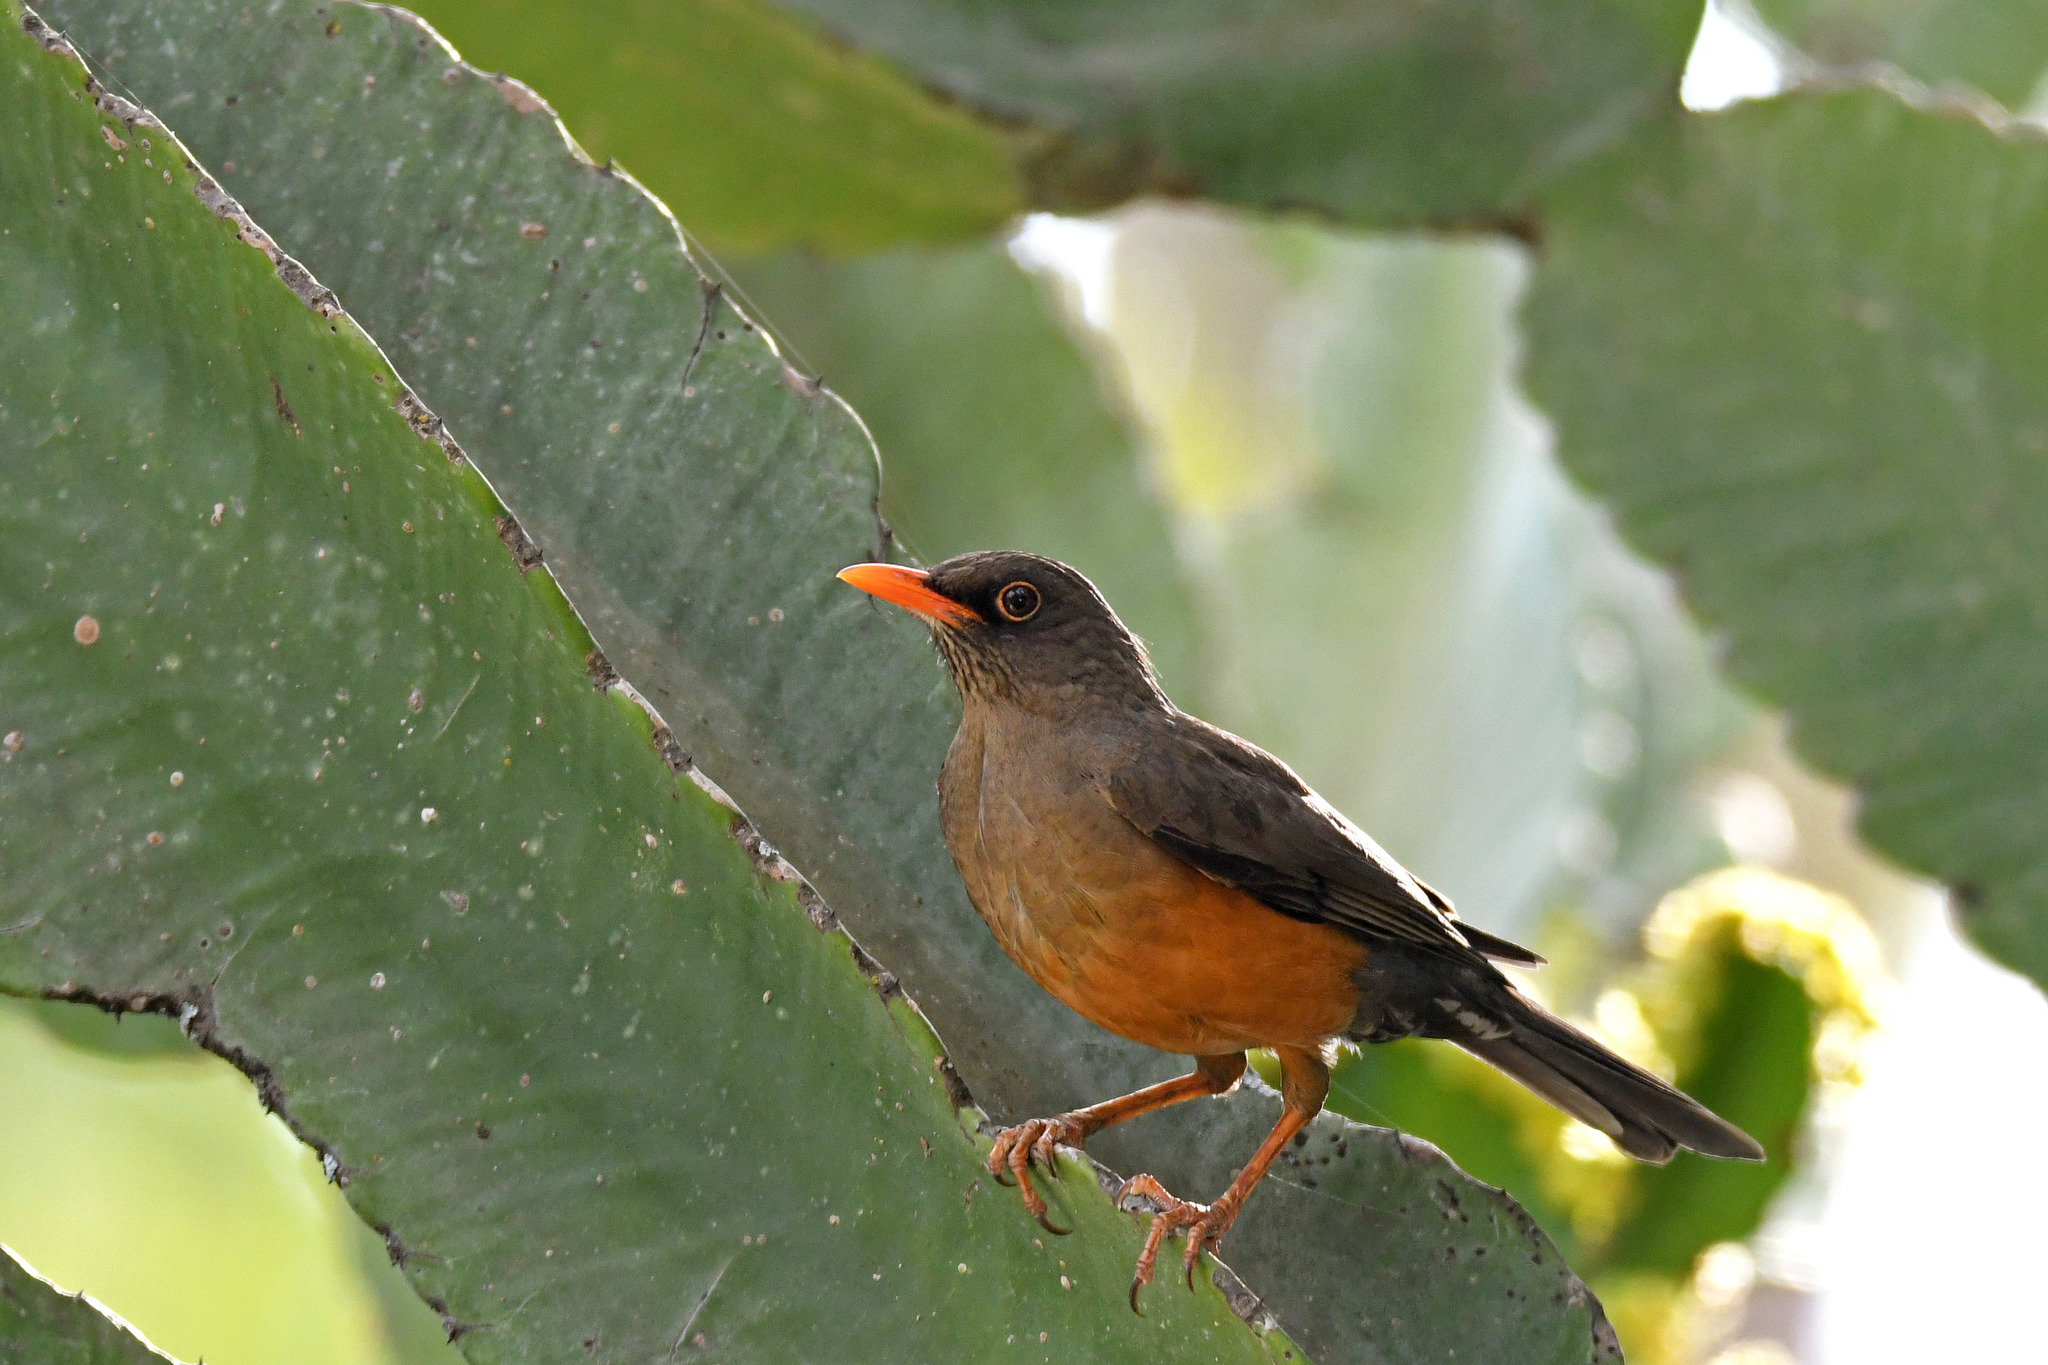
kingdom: Animalia
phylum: Chordata
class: Aves
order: Passeriformes
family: Turdidae
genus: Turdus
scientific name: Turdus abyssinicus
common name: Abyssinian thrush
